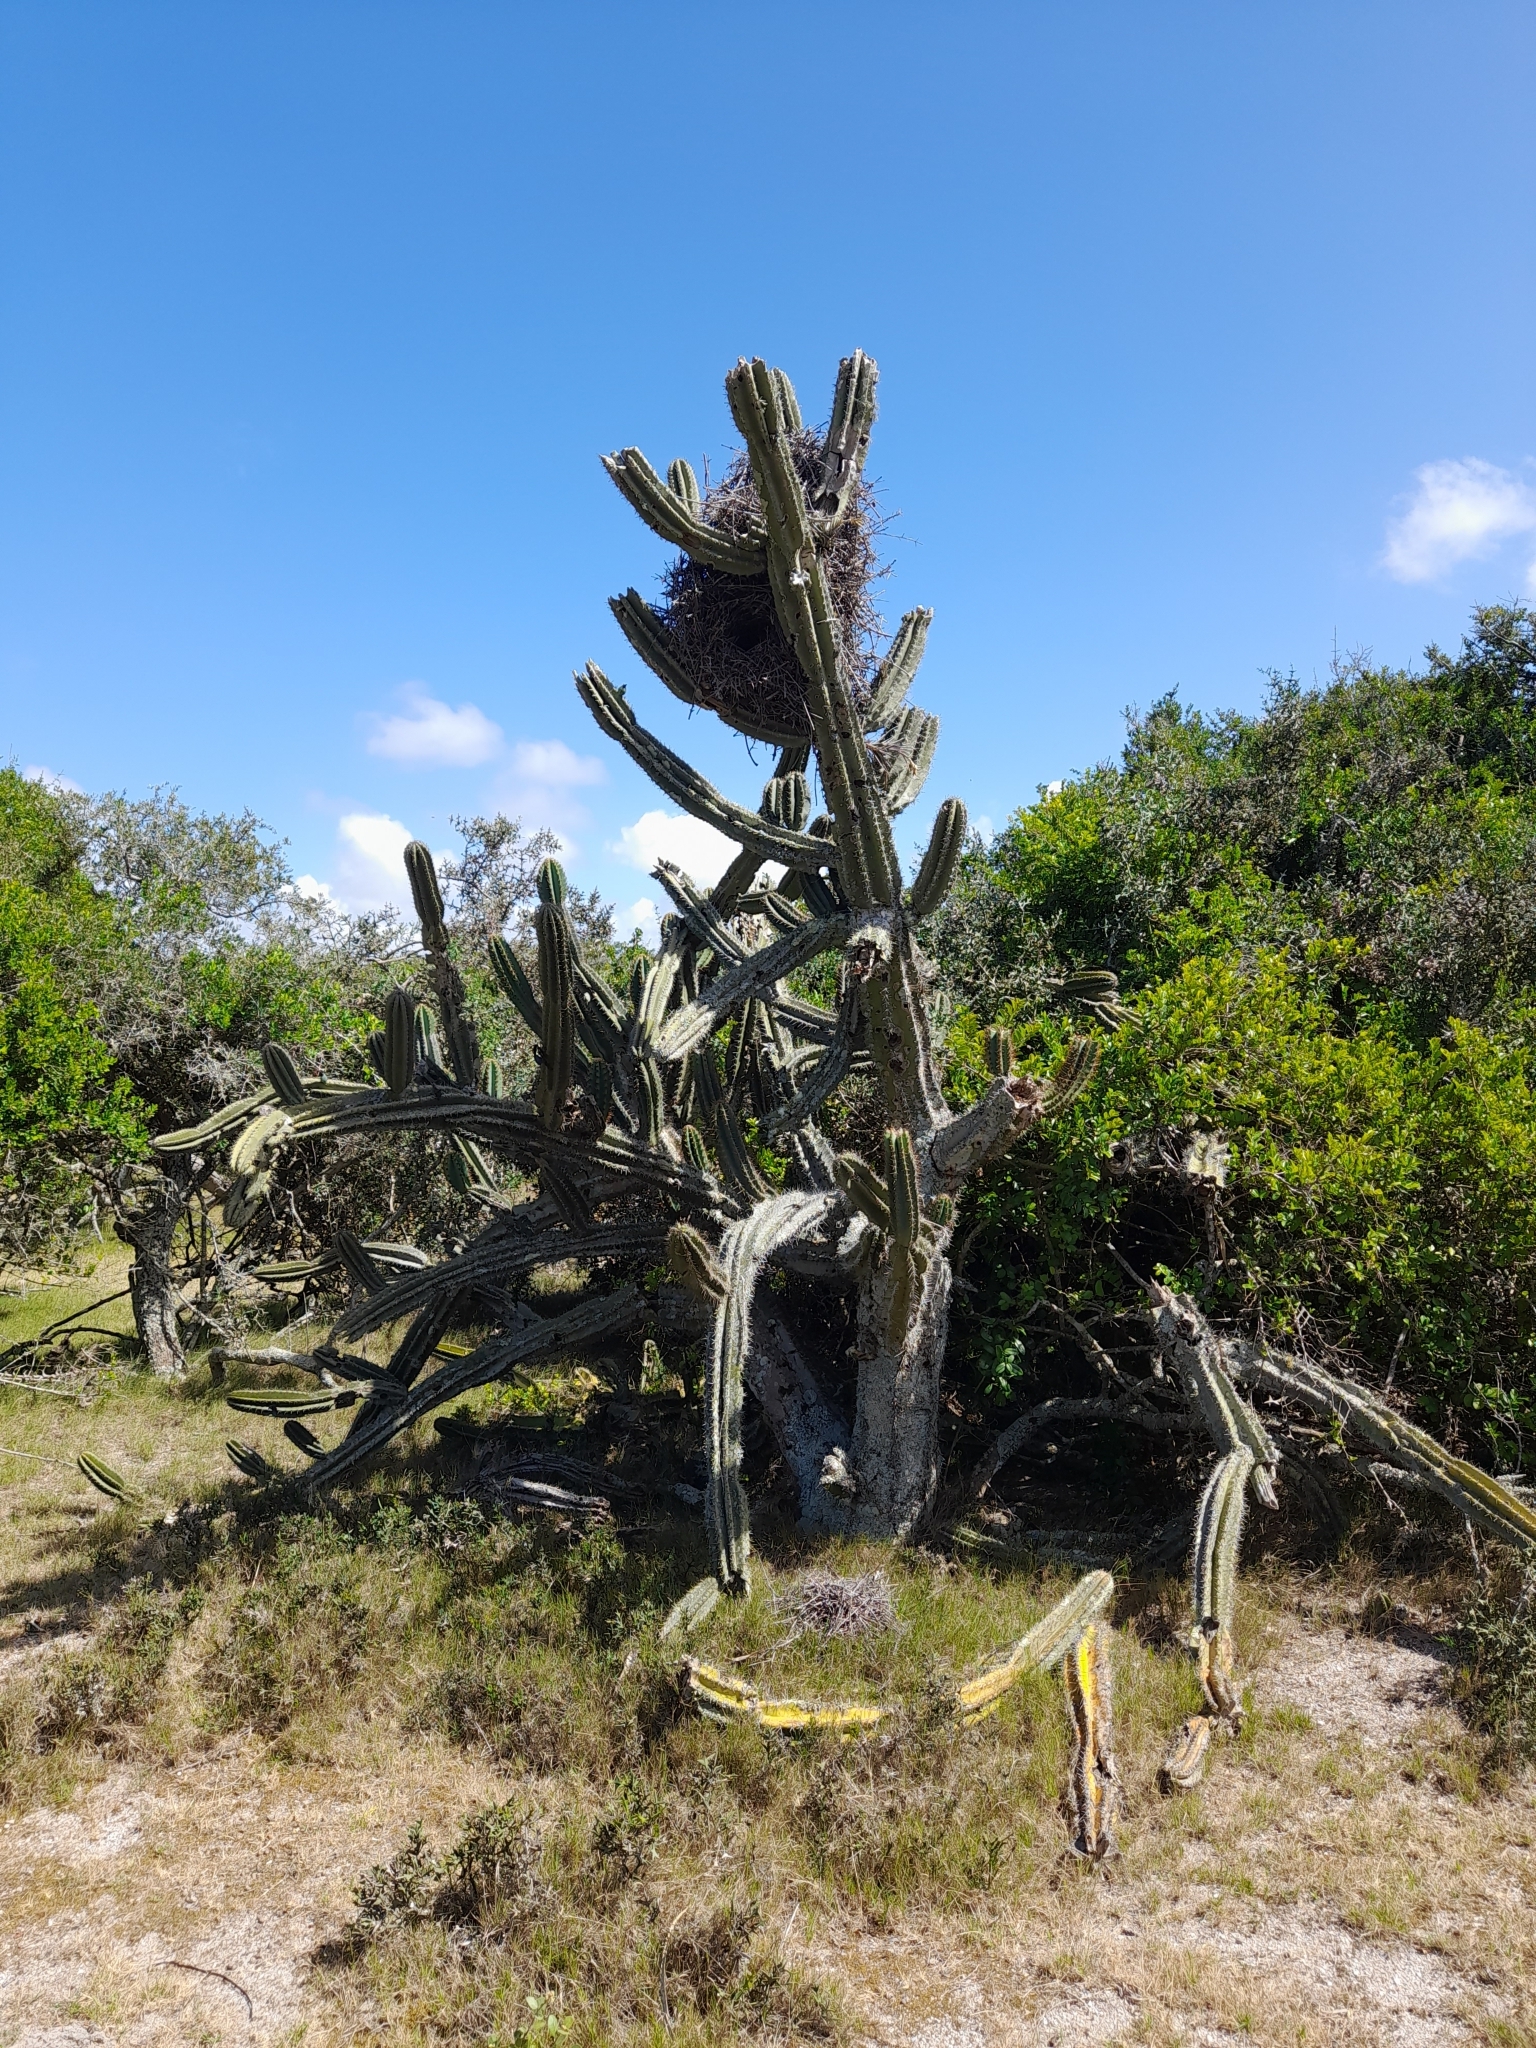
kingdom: Plantae
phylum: Tracheophyta
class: Magnoliopsida
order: Caryophyllales
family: Cactaceae
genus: Cereus
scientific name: Cereus hildmannianus
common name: Hedge cactus
